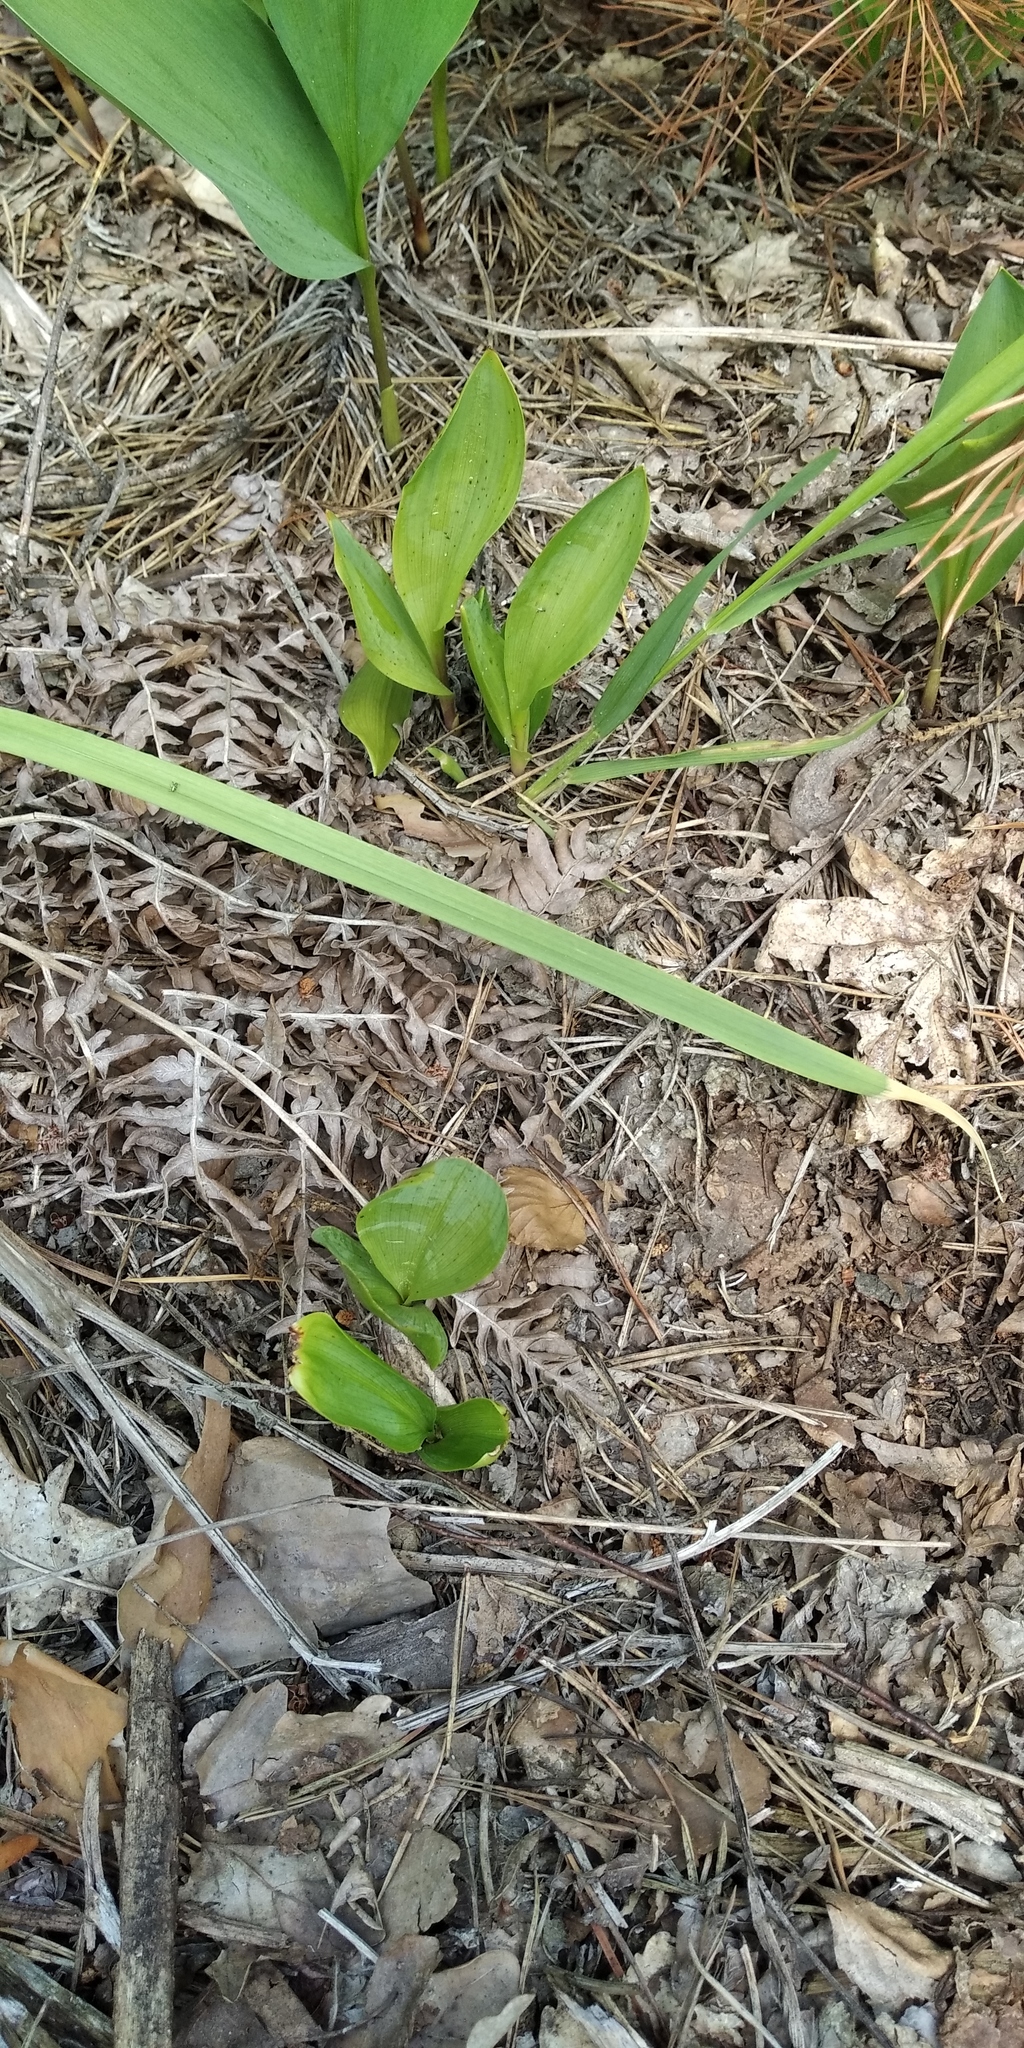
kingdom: Plantae
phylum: Tracheophyta
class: Liliopsida
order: Asparagales
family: Asparagaceae
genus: Convallaria
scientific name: Convallaria majalis
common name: Lily-of-the-valley
